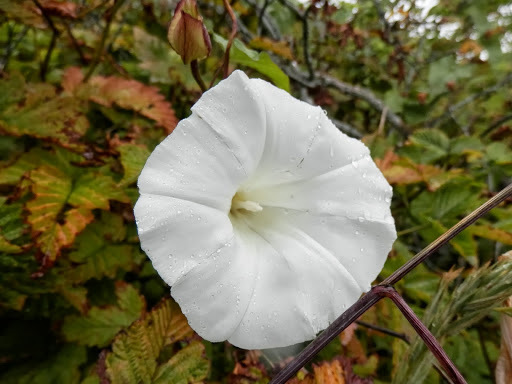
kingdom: Plantae
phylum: Tracheophyta
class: Magnoliopsida
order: Solanales
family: Convolvulaceae
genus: Calystegia
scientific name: Calystegia silvatica
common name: Large bindweed
